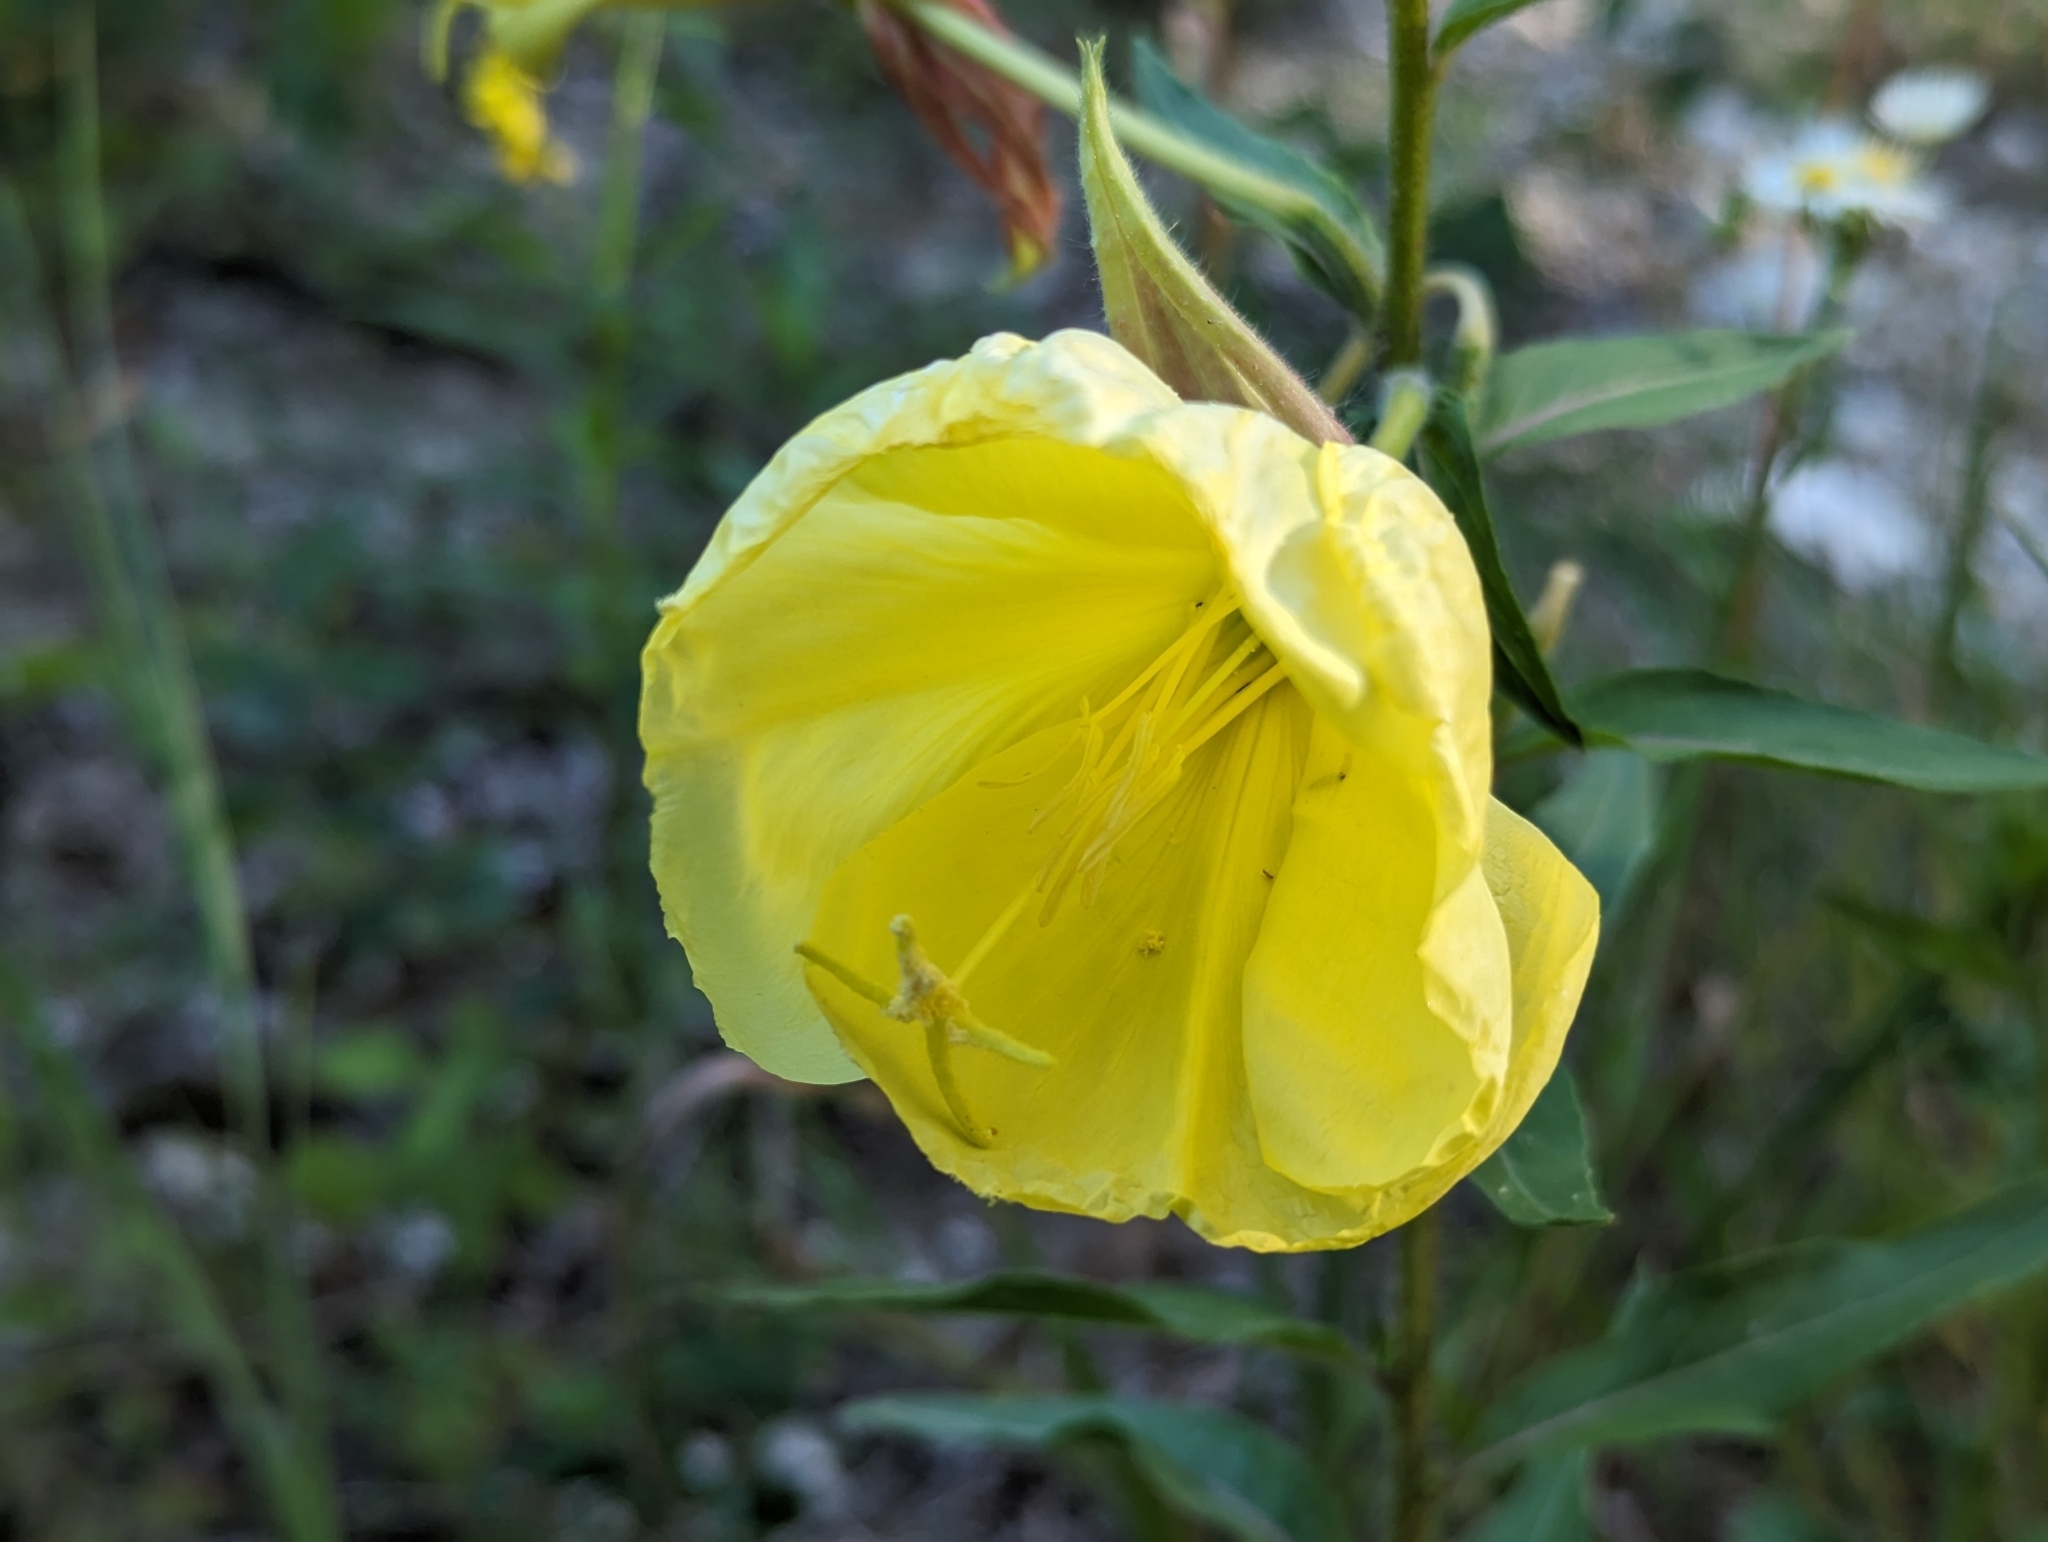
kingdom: Plantae
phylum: Tracheophyta
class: Magnoliopsida
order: Myrtales
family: Onagraceae
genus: Oenothera
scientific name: Oenothera glazioviana
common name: Large-flowered evening-primrose
